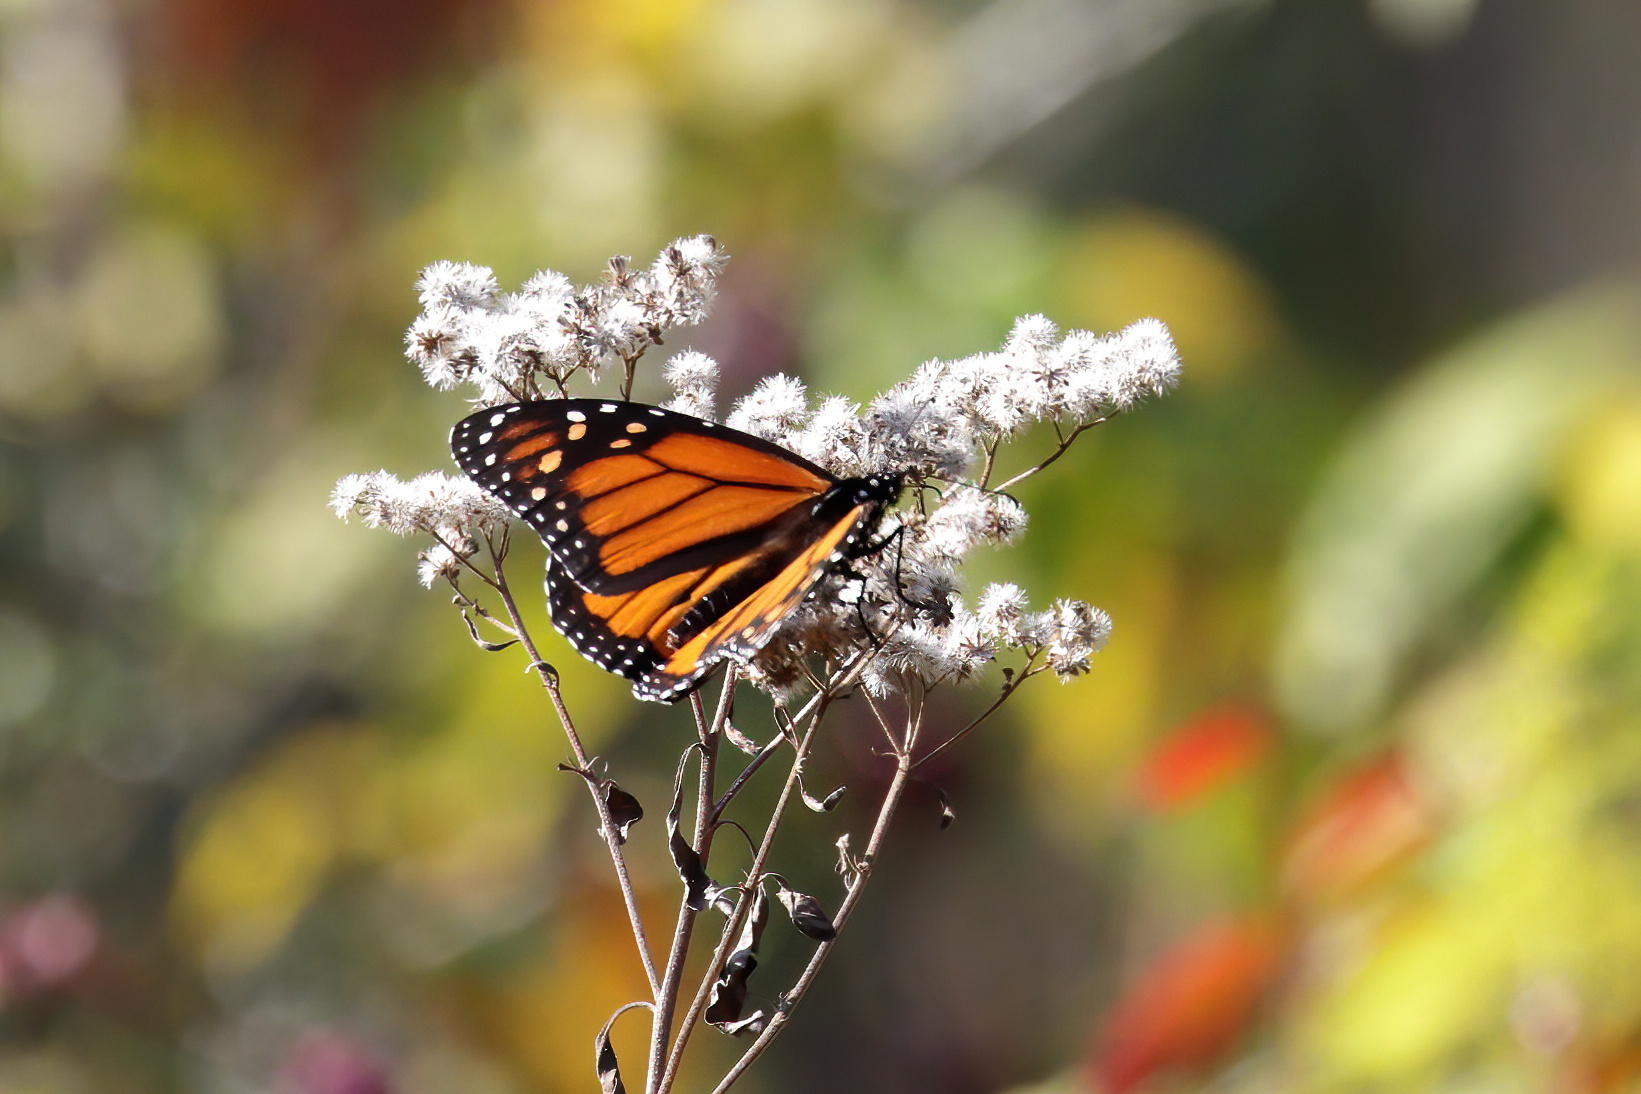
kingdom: Animalia
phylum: Arthropoda
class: Insecta
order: Lepidoptera
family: Nymphalidae
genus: Danaus
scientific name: Danaus plexippus
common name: Monarch
